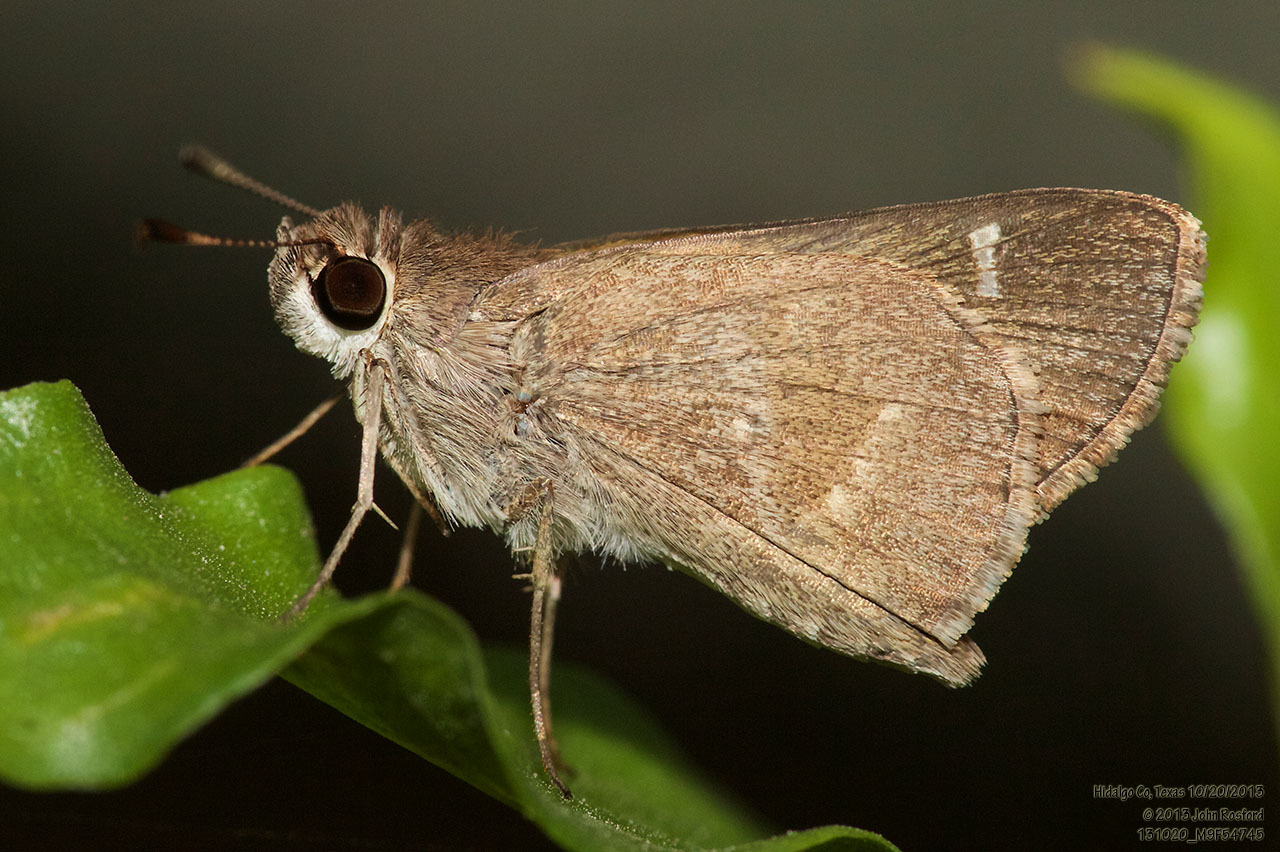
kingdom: Animalia
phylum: Arthropoda
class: Insecta
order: Lepidoptera
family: Hesperiidae
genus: Lerodea
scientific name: Lerodea arabus
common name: Violet-clouded skipper
